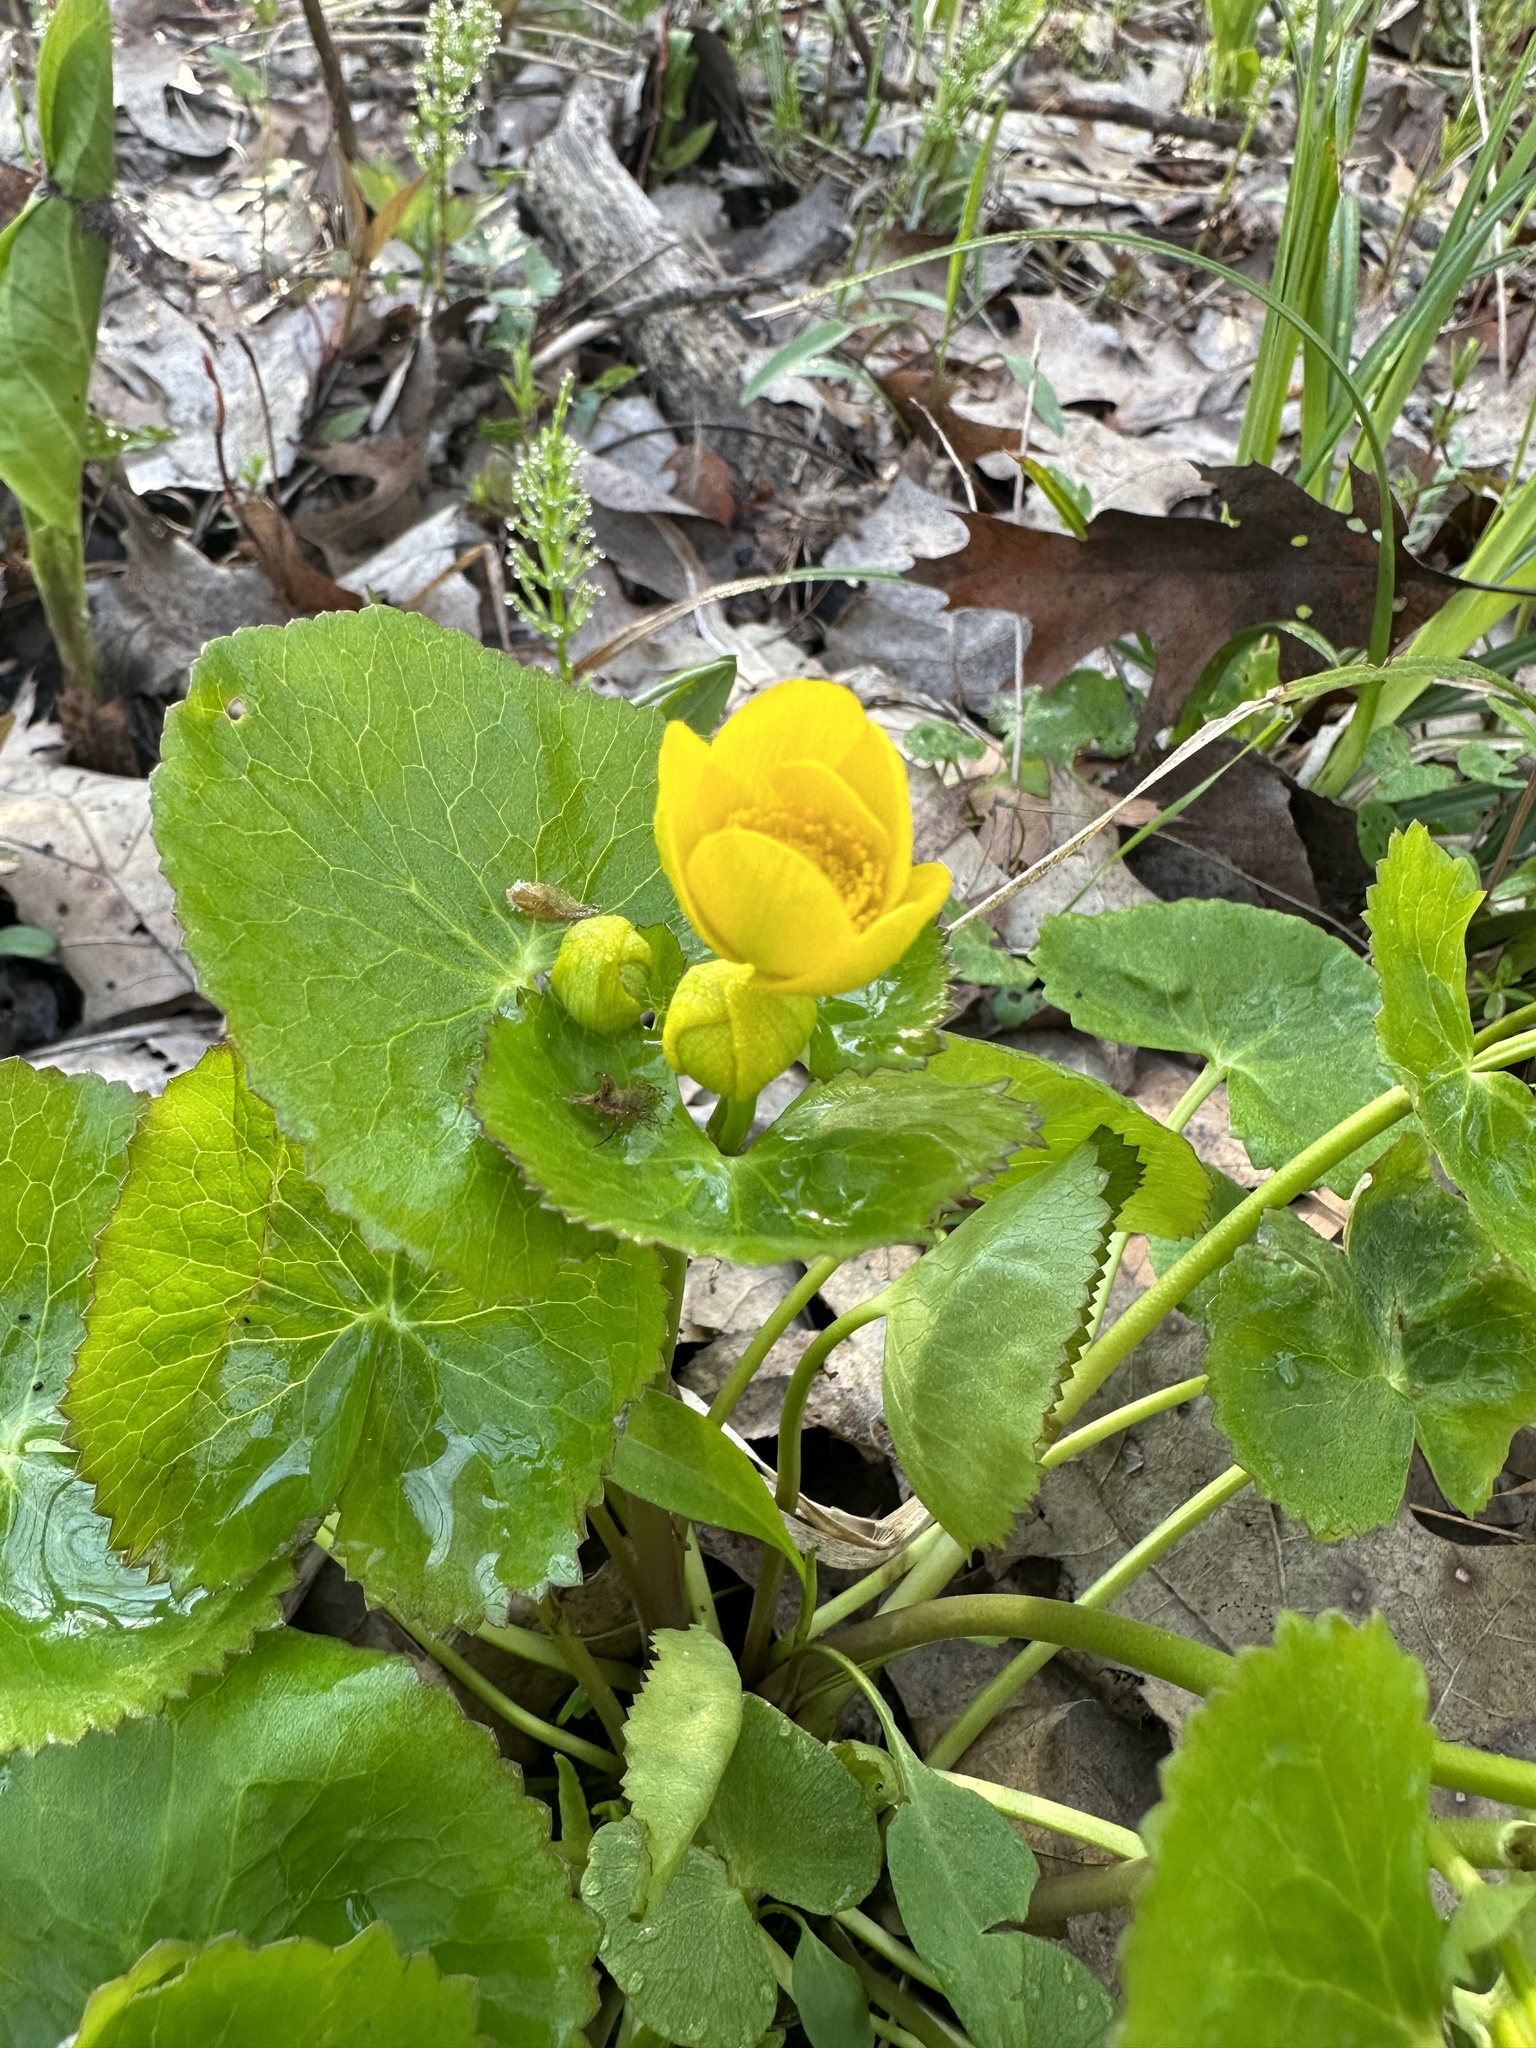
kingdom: Plantae
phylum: Tracheophyta
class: Magnoliopsida
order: Ranunculales
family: Ranunculaceae
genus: Caltha
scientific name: Caltha palustris
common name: Marsh marigold
